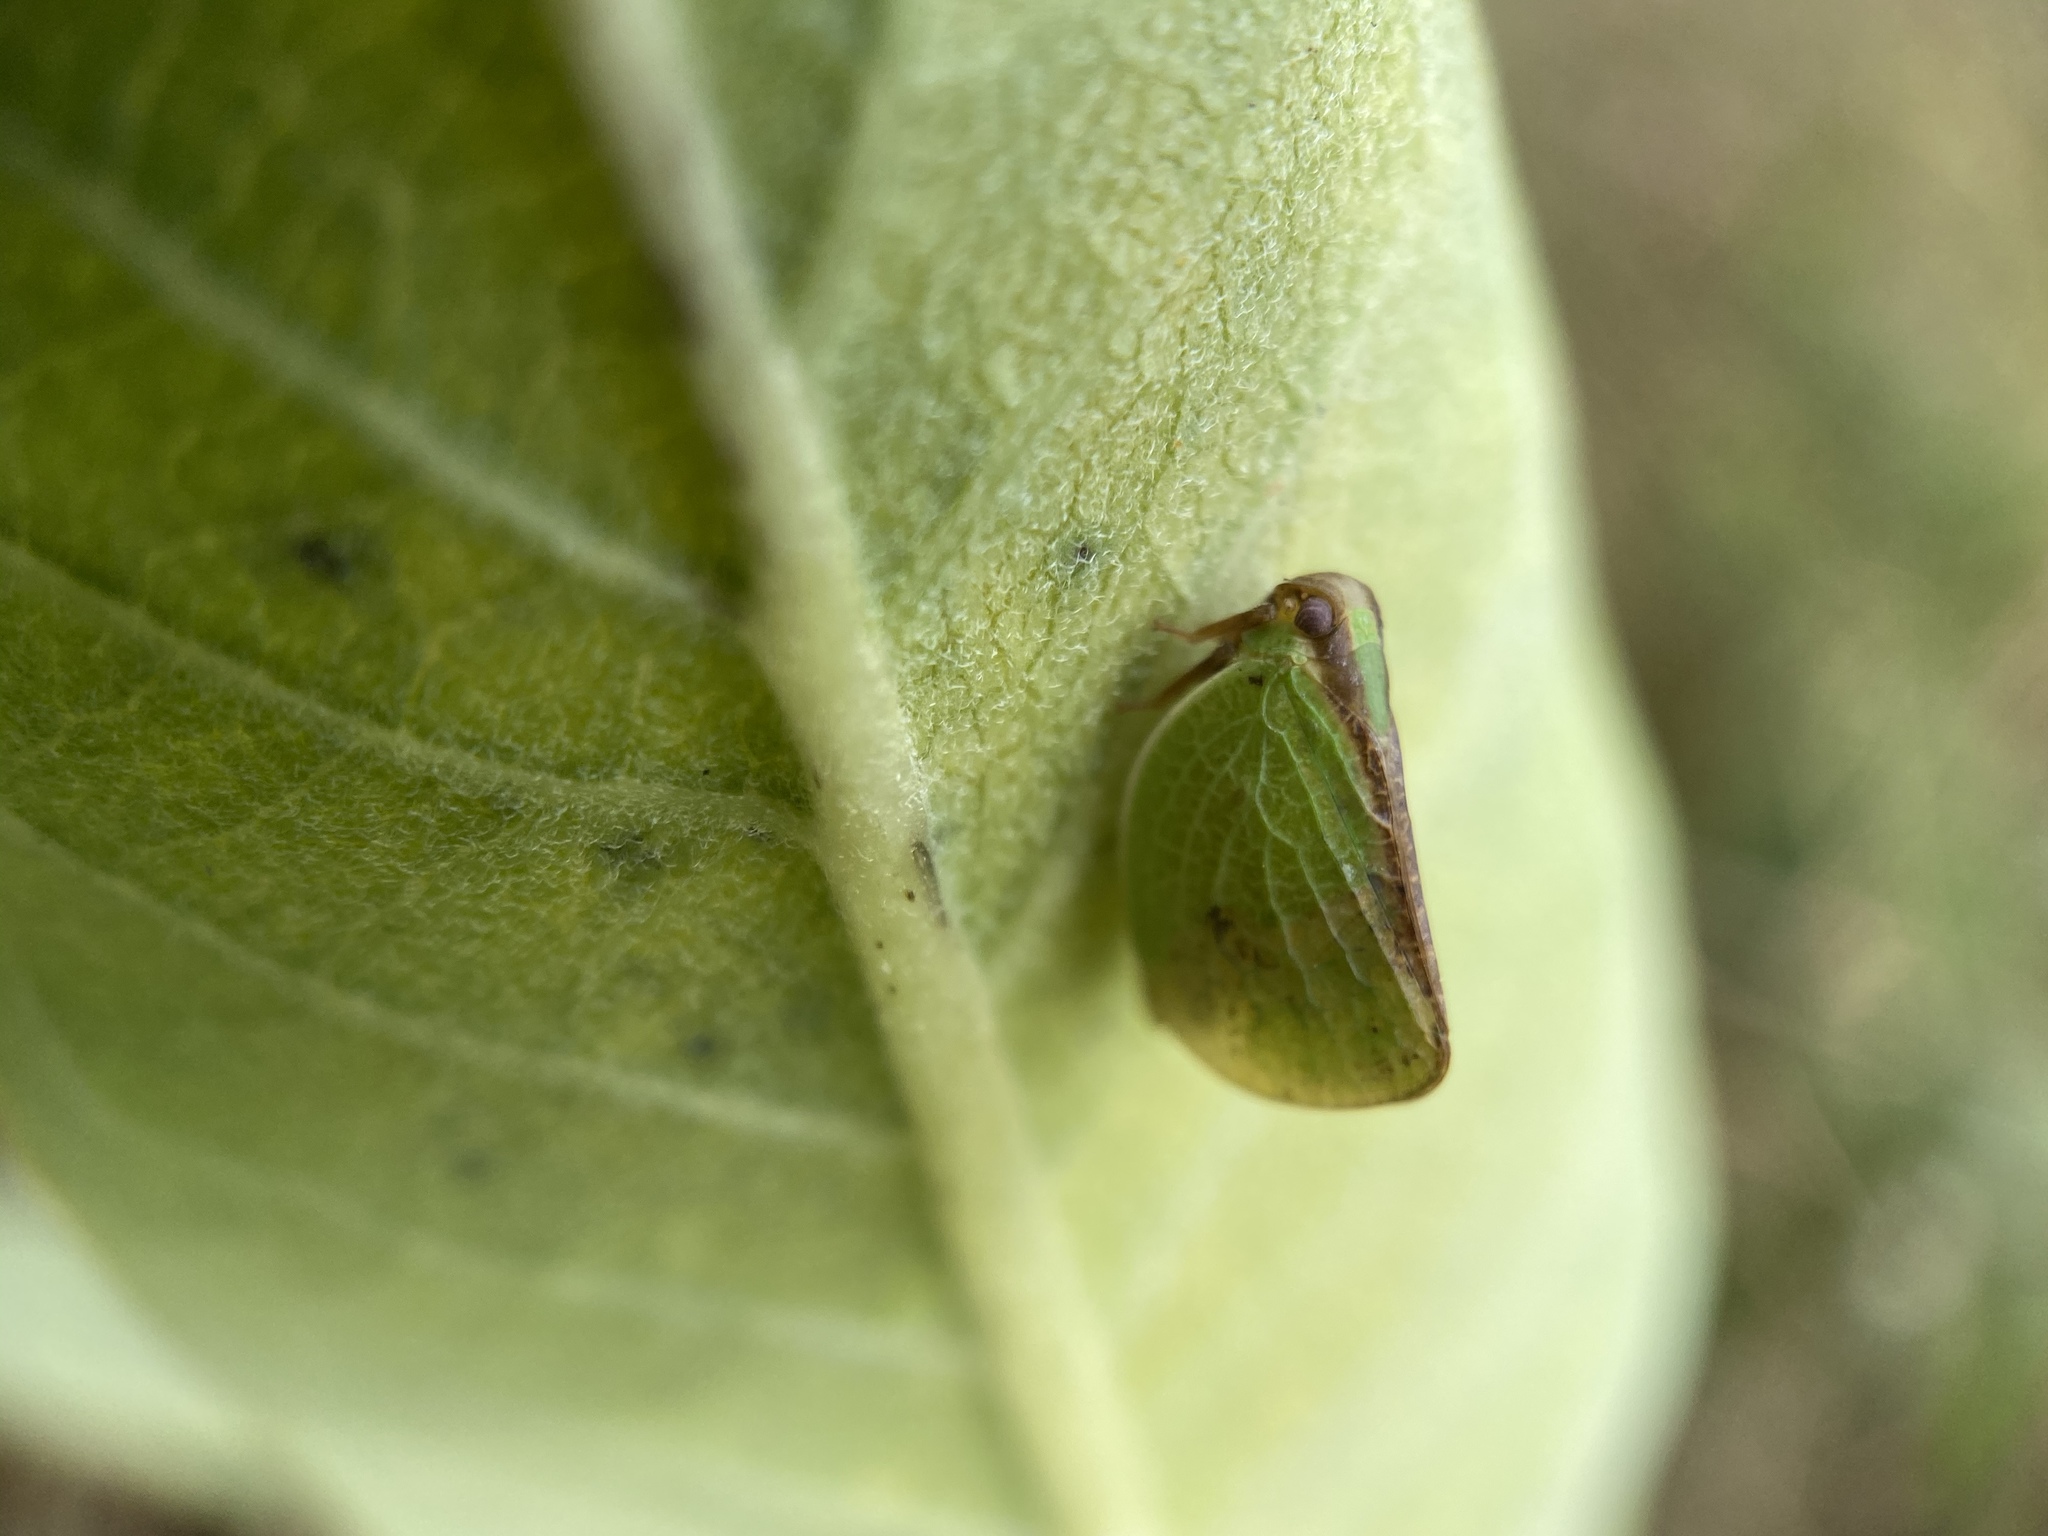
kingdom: Animalia
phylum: Arthropoda
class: Insecta
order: Hemiptera
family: Acanaloniidae
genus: Acanalonia
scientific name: Acanalonia bivittata
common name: Two-striped planthopper
